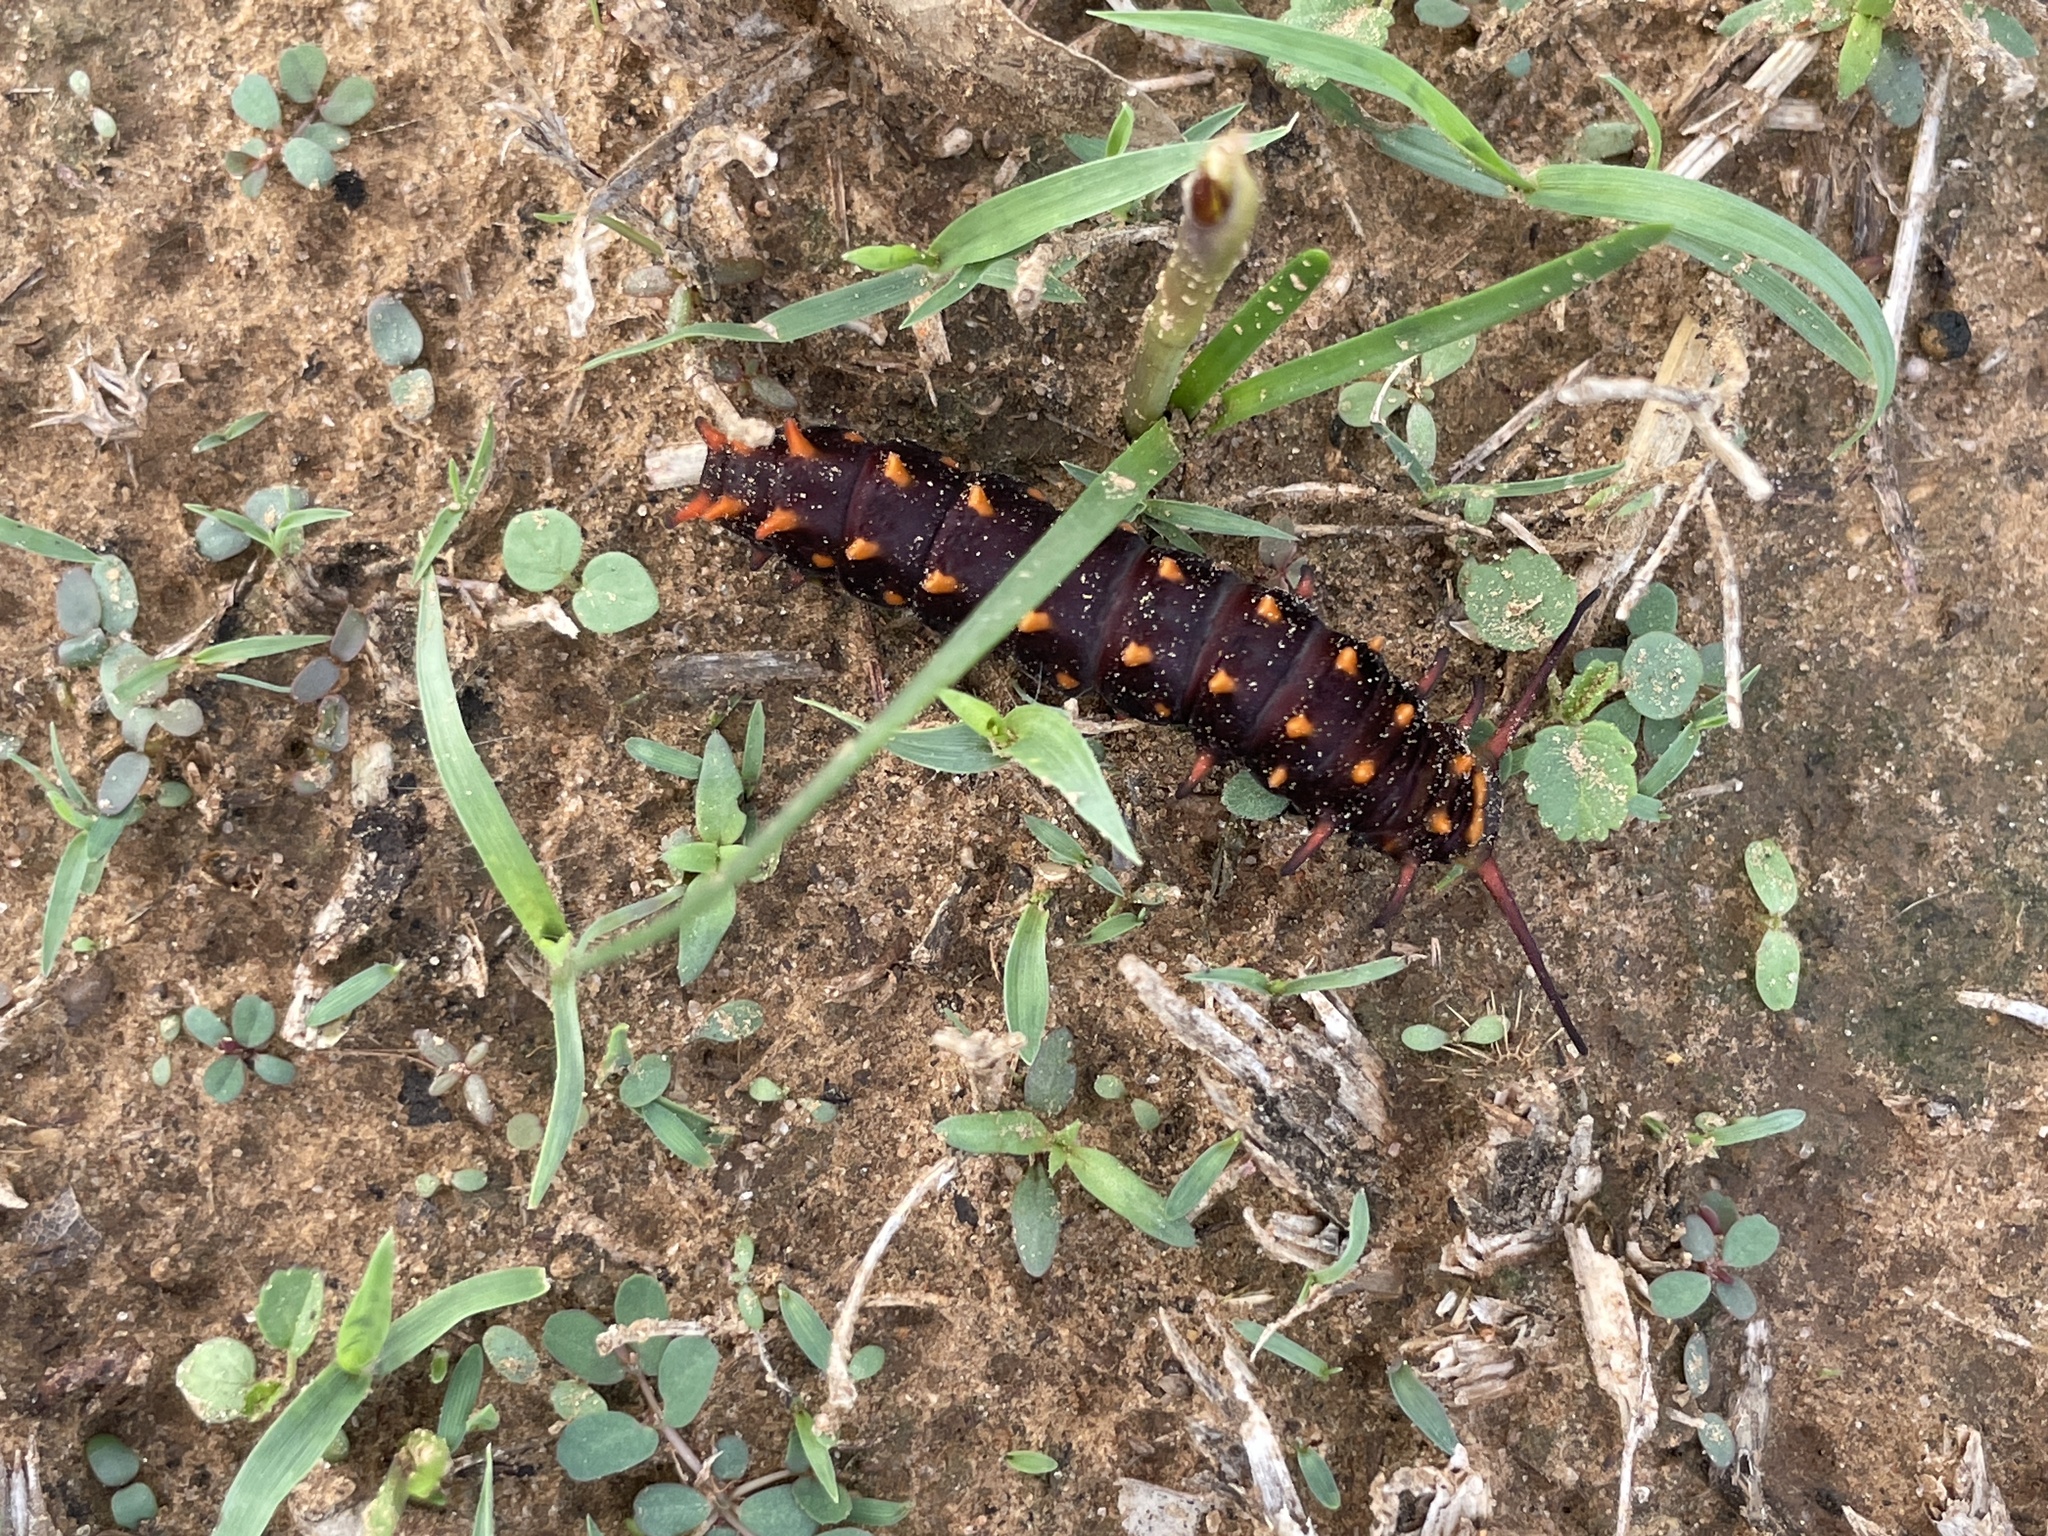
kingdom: Animalia
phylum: Arthropoda
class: Insecta
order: Lepidoptera
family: Papilionidae
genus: Battus
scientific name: Battus philenor
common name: Pipevine swallowtail
